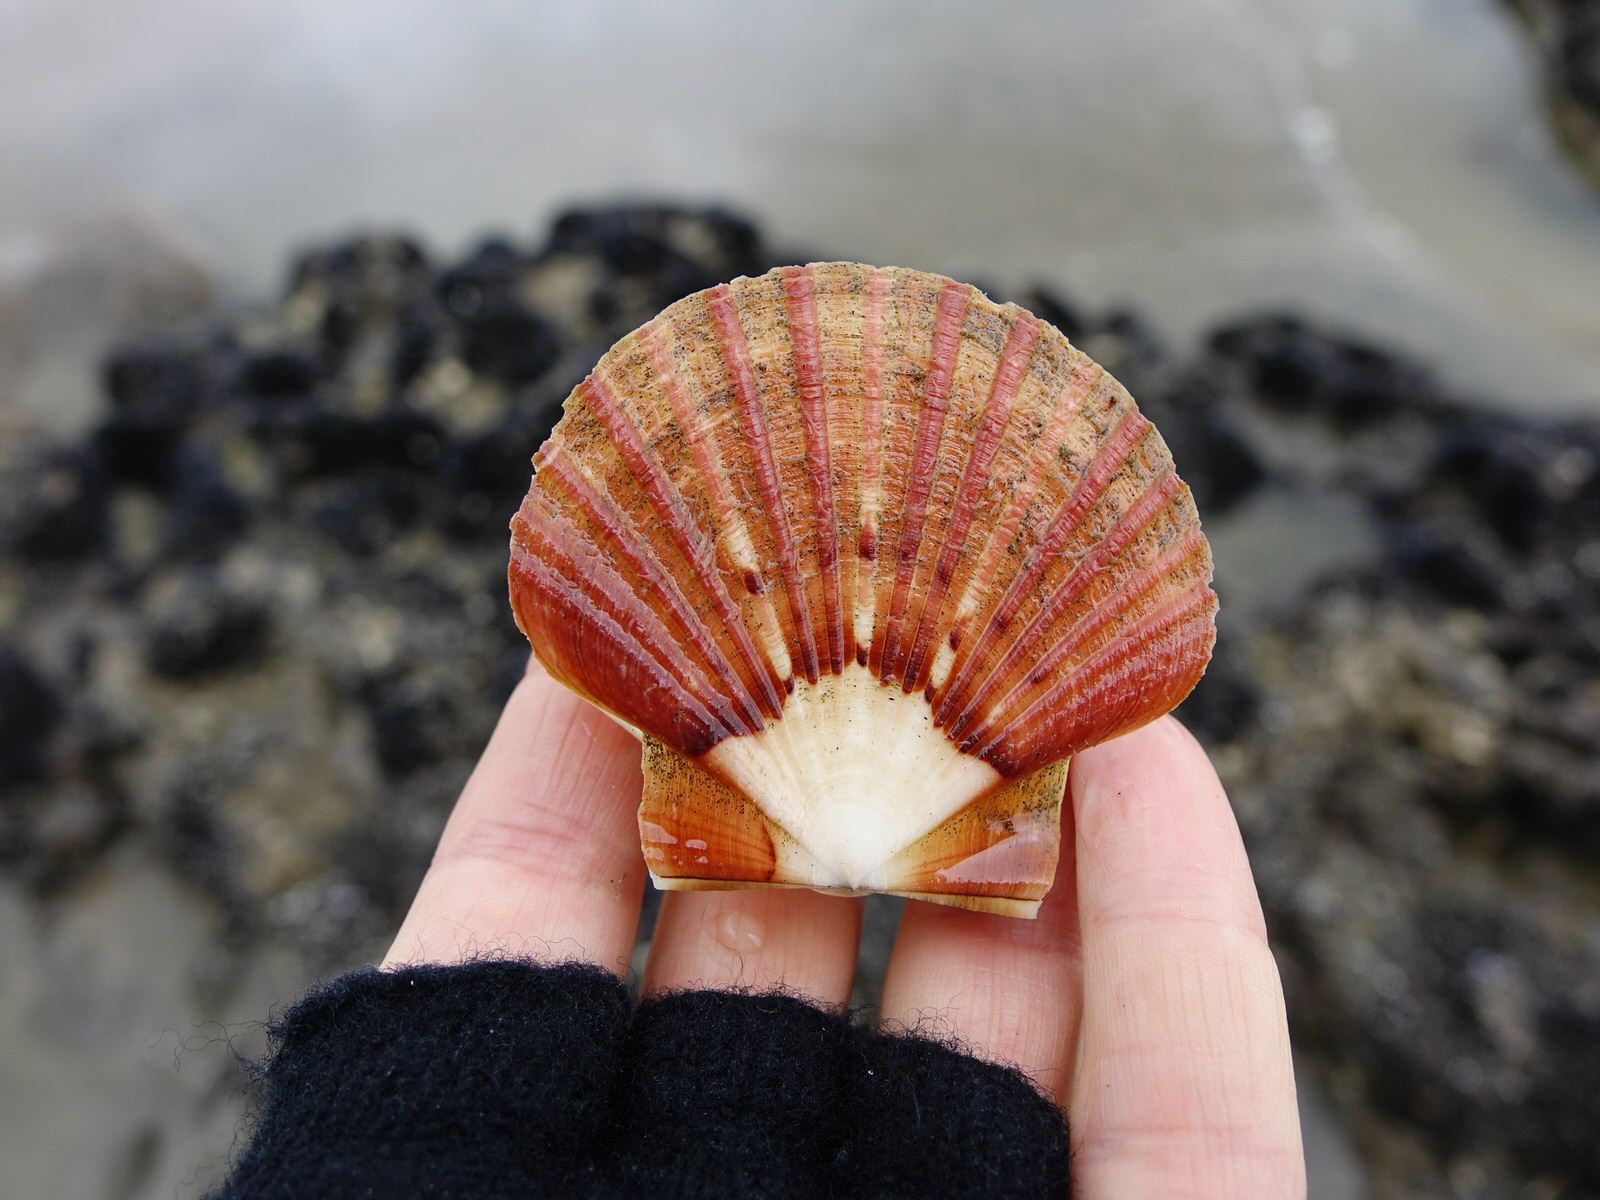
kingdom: Animalia
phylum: Mollusca
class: Bivalvia
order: Pectinida
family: Pectinidae
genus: Pecten
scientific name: Pecten novaezelandiae
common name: New zealand scallop
